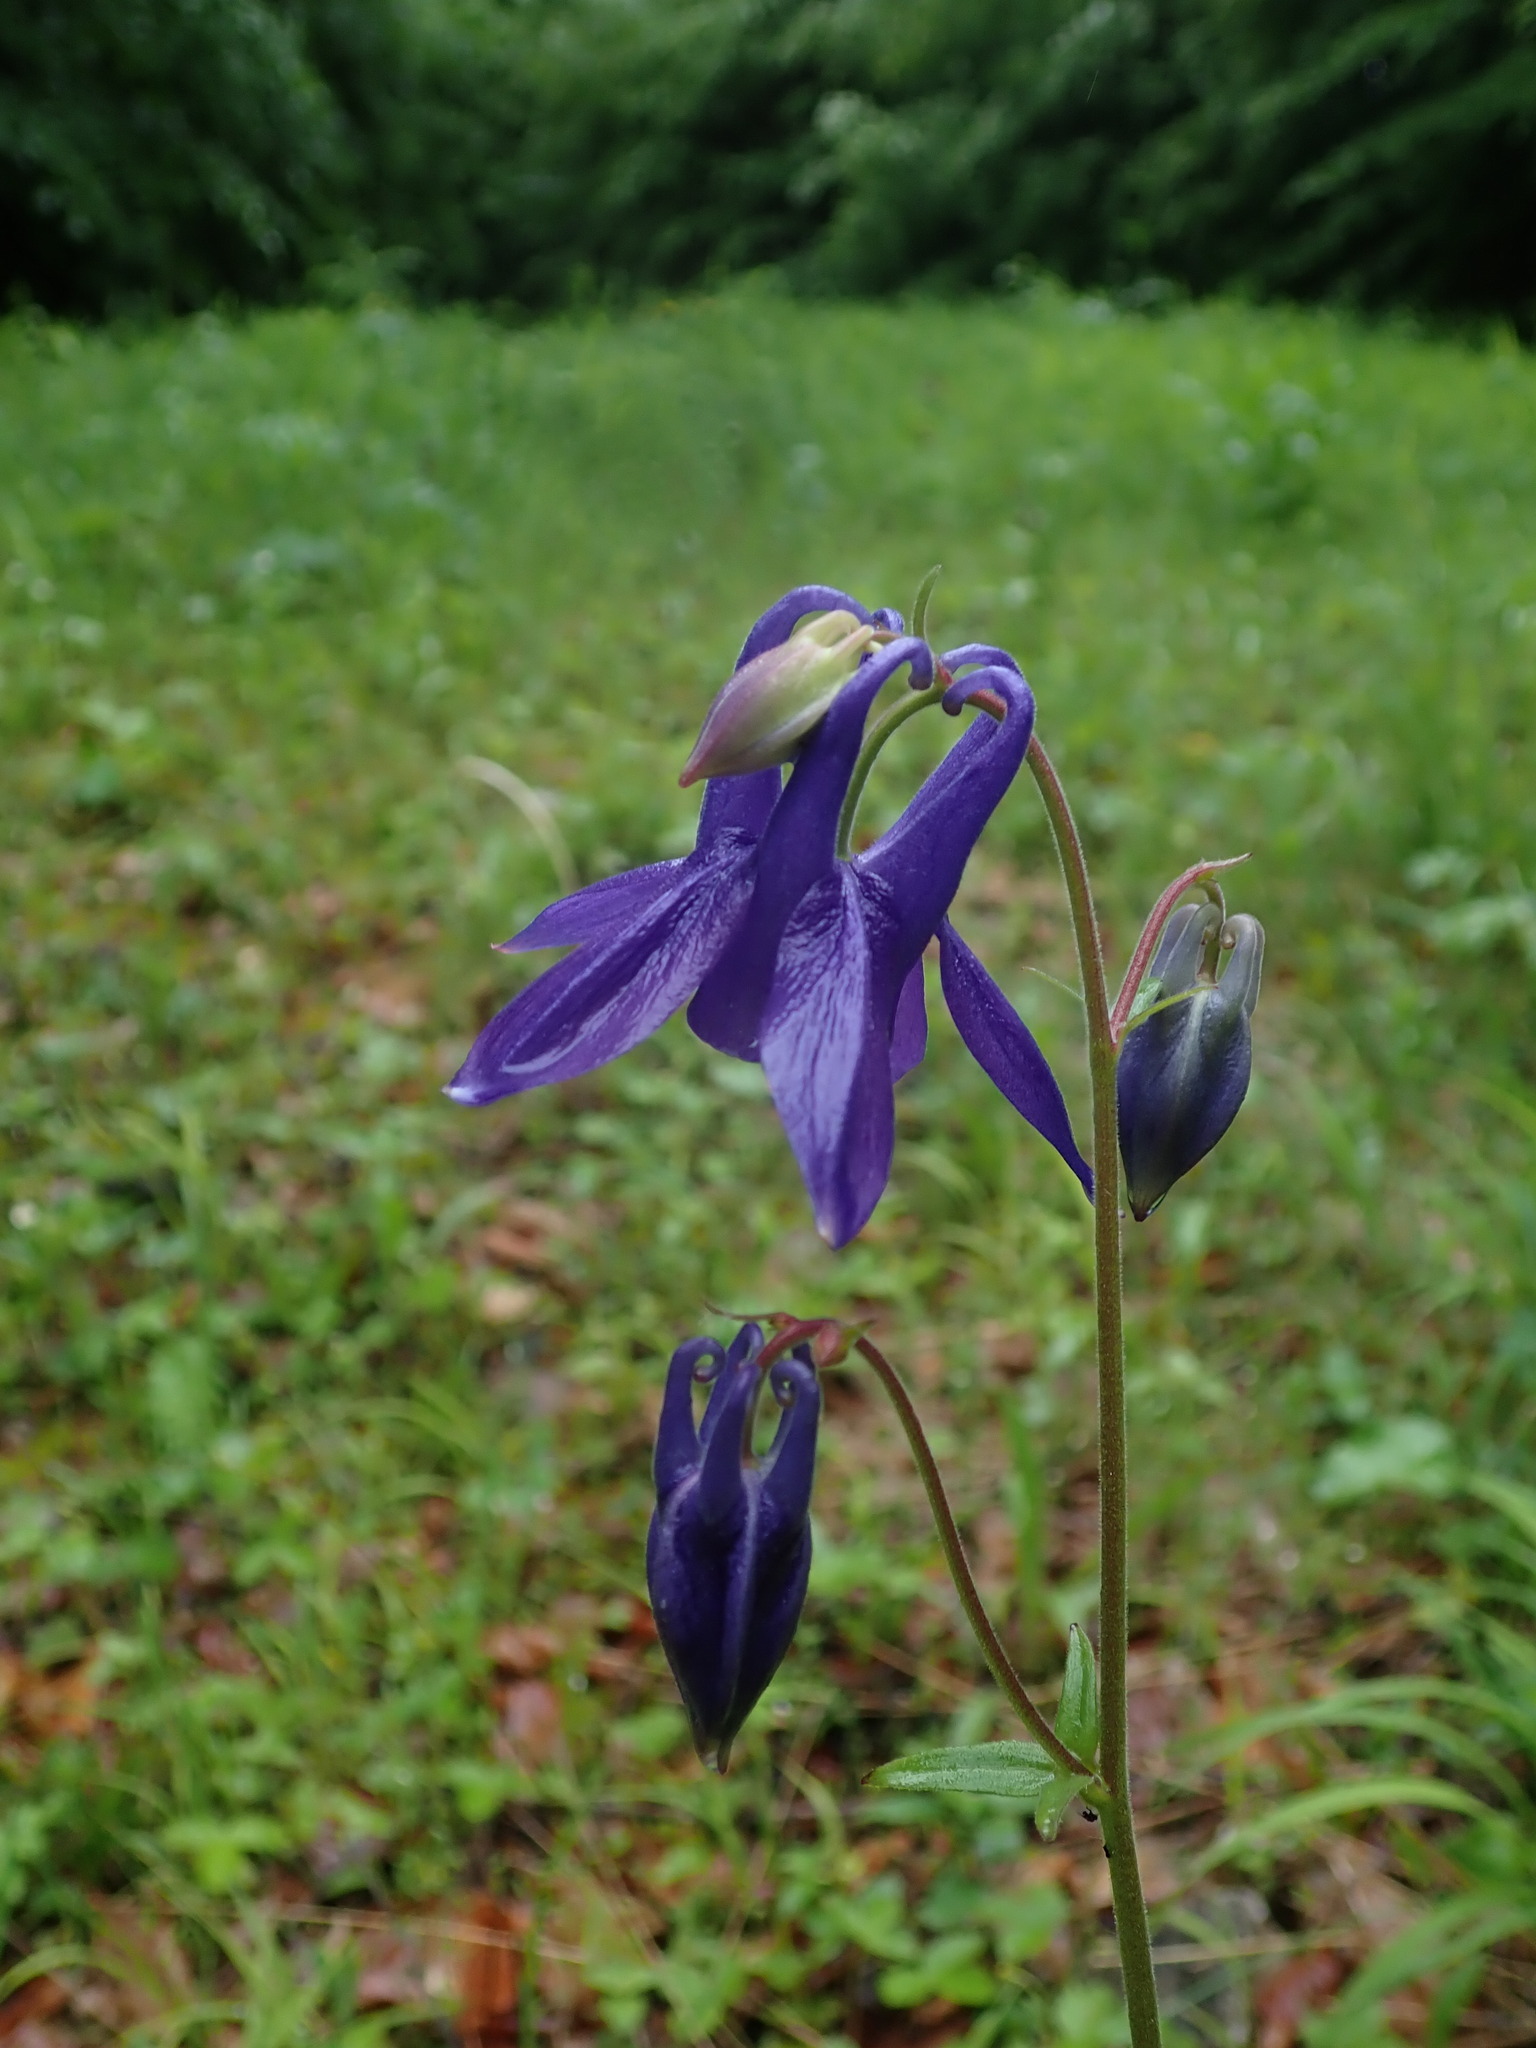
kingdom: Plantae
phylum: Tracheophyta
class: Magnoliopsida
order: Ranunculales
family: Ranunculaceae
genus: Aquilegia
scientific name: Aquilegia vulgaris
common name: Columbine
